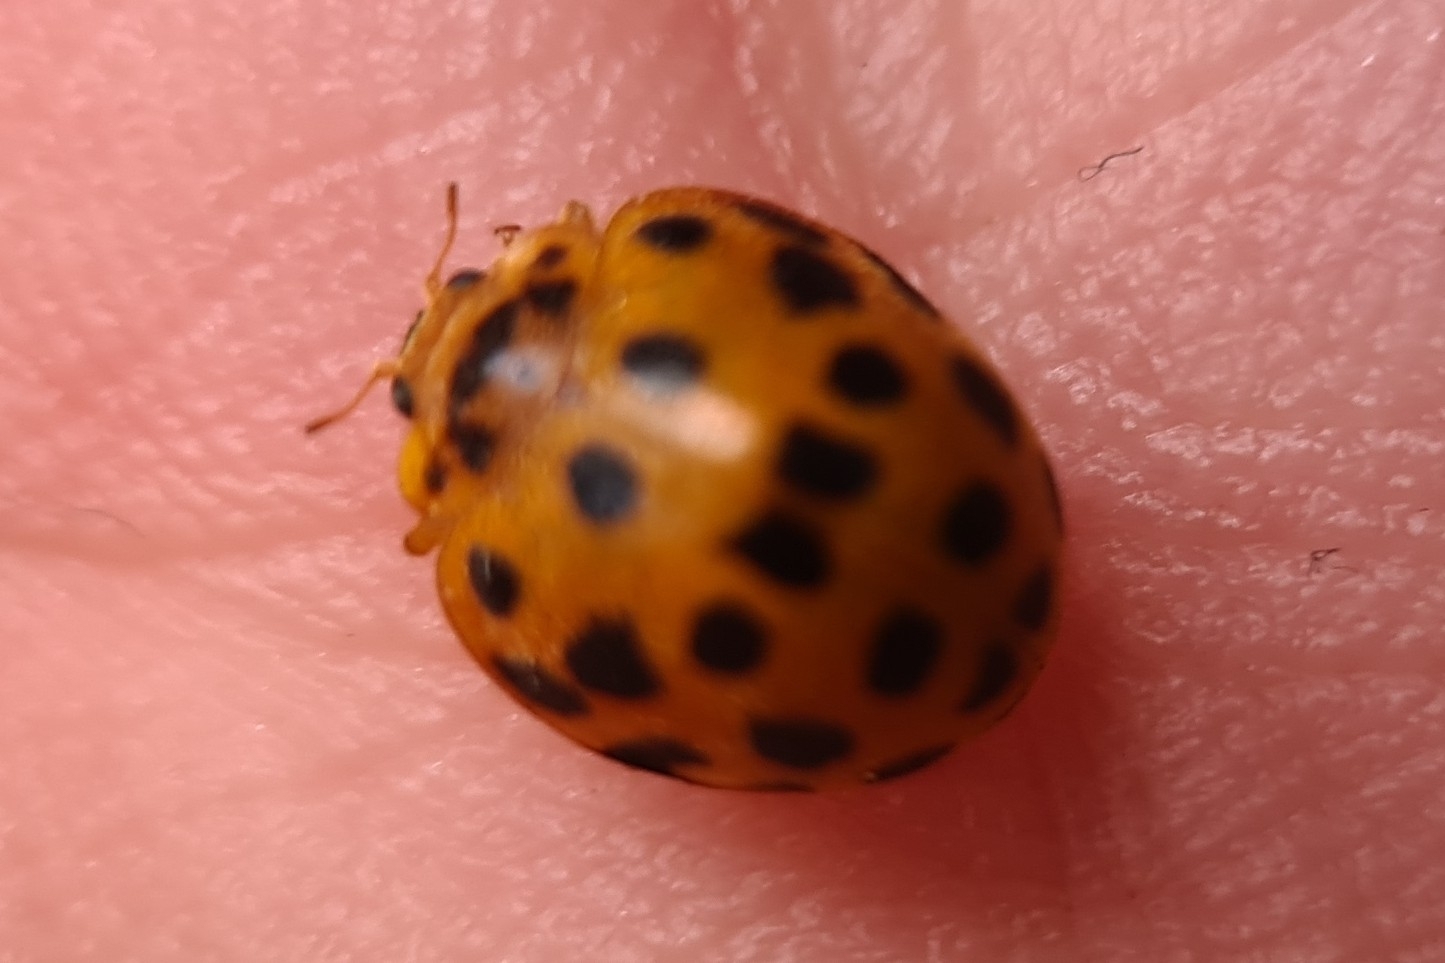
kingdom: Animalia
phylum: Arthropoda
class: Insecta
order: Coleoptera
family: Coccinellidae
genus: Henosepilachna
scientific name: Henosepilachna vigintioctopunctata
